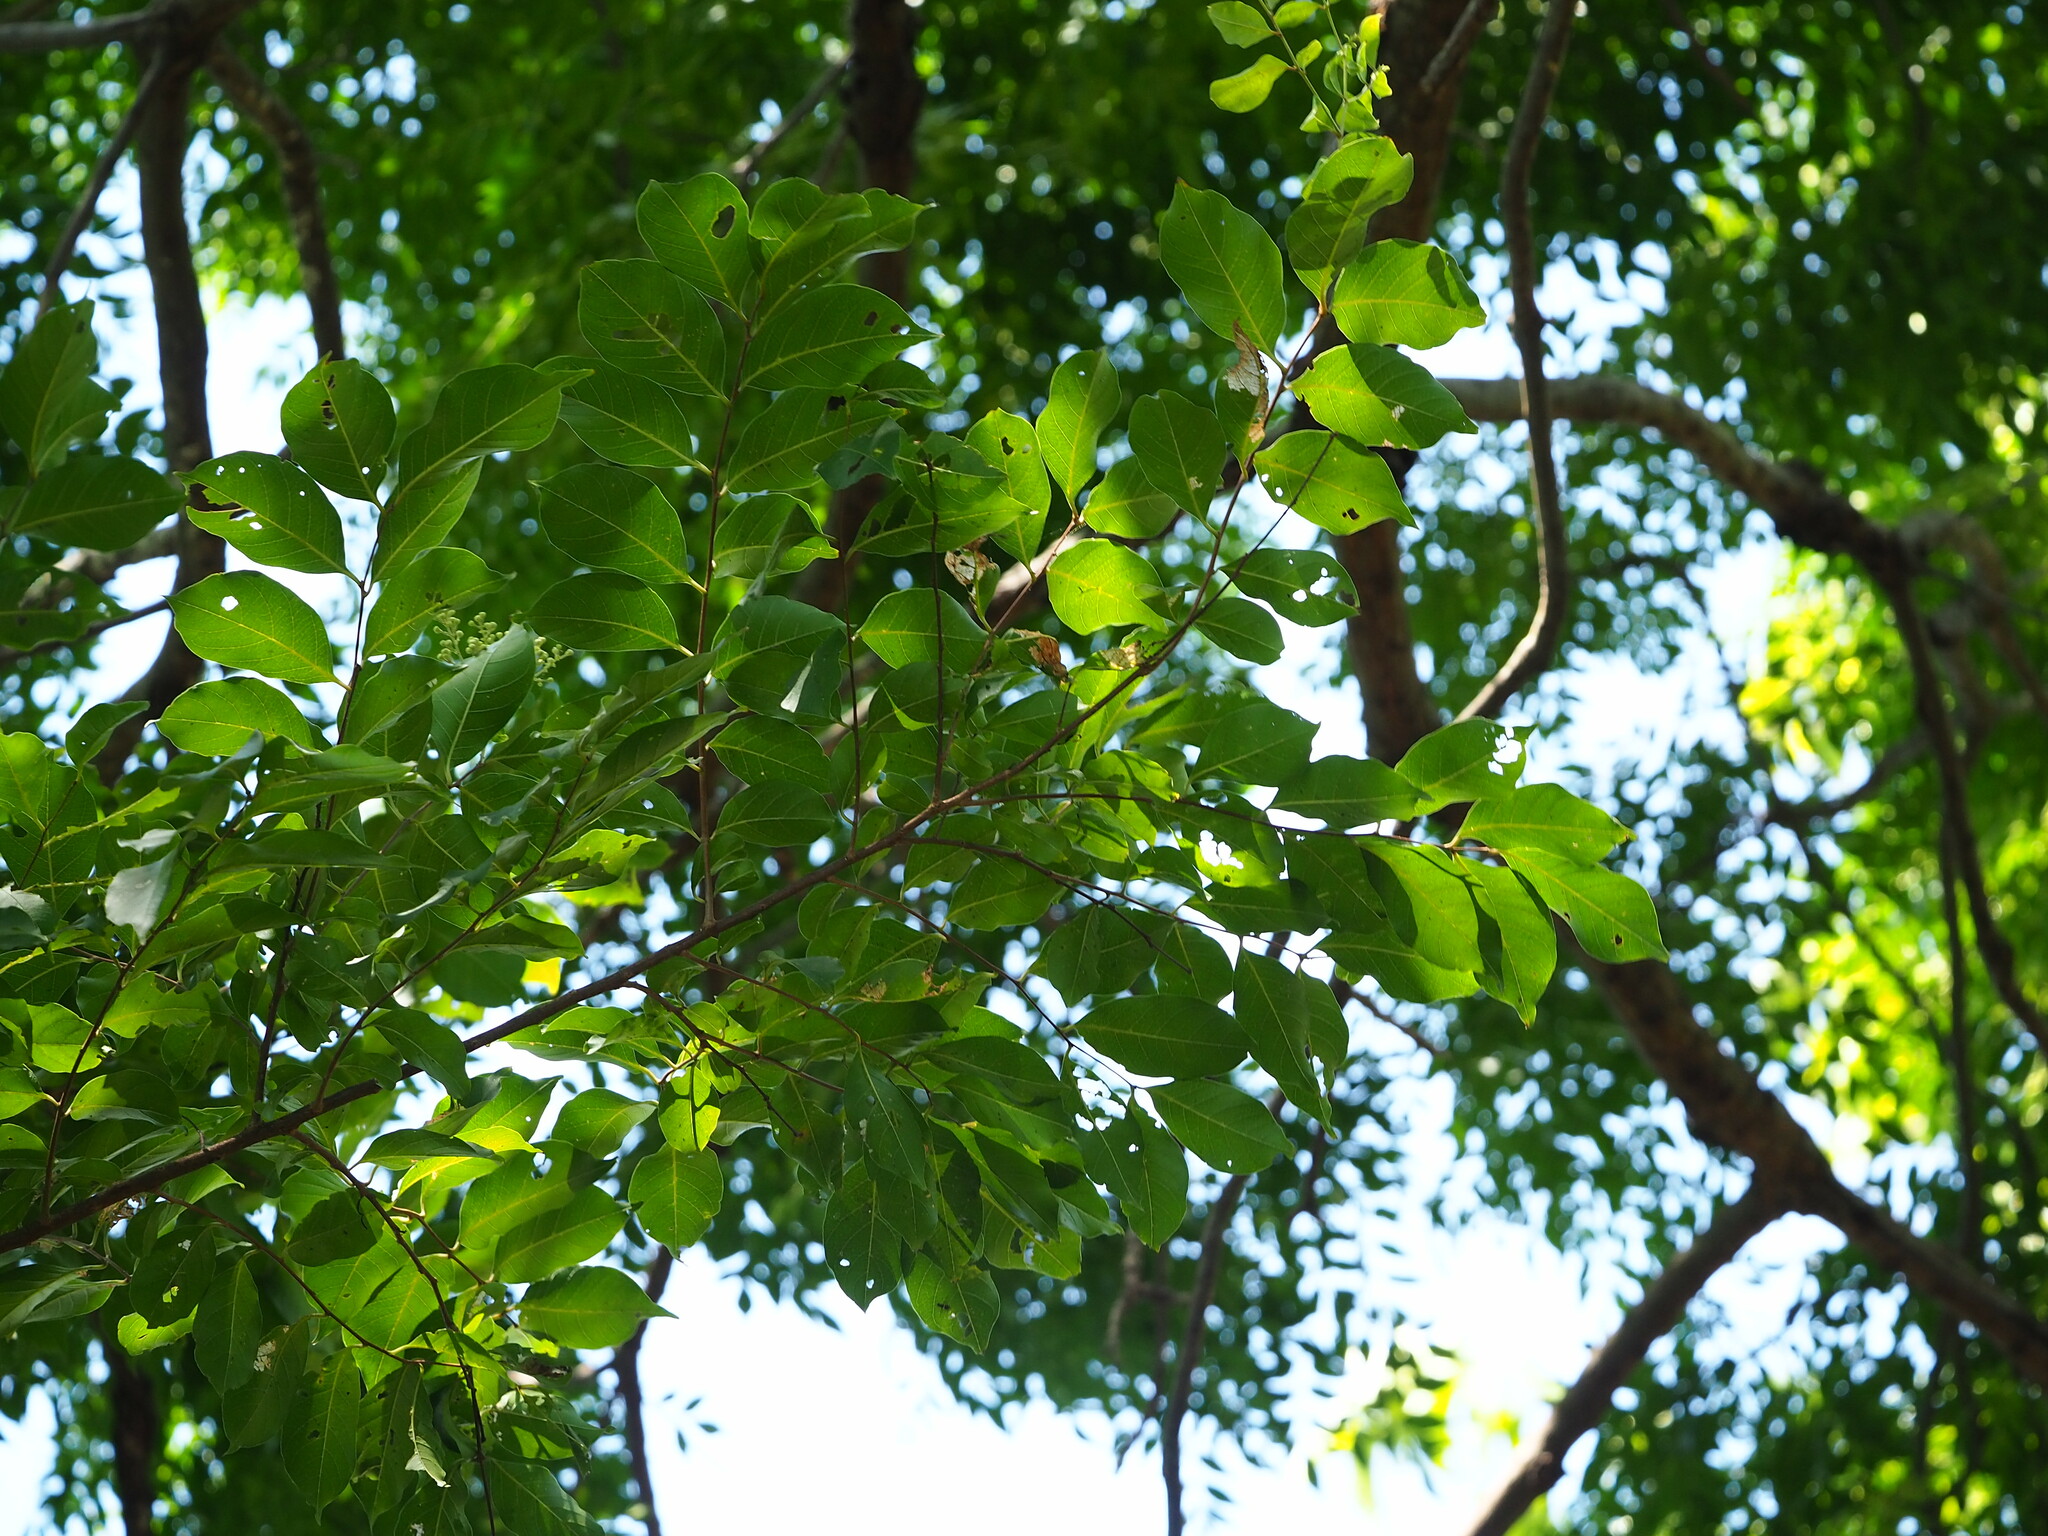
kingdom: Plantae
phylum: Tracheophyta
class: Magnoliopsida
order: Myrtales
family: Lythraceae
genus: Lagerstroemia
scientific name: Lagerstroemia subcostata
